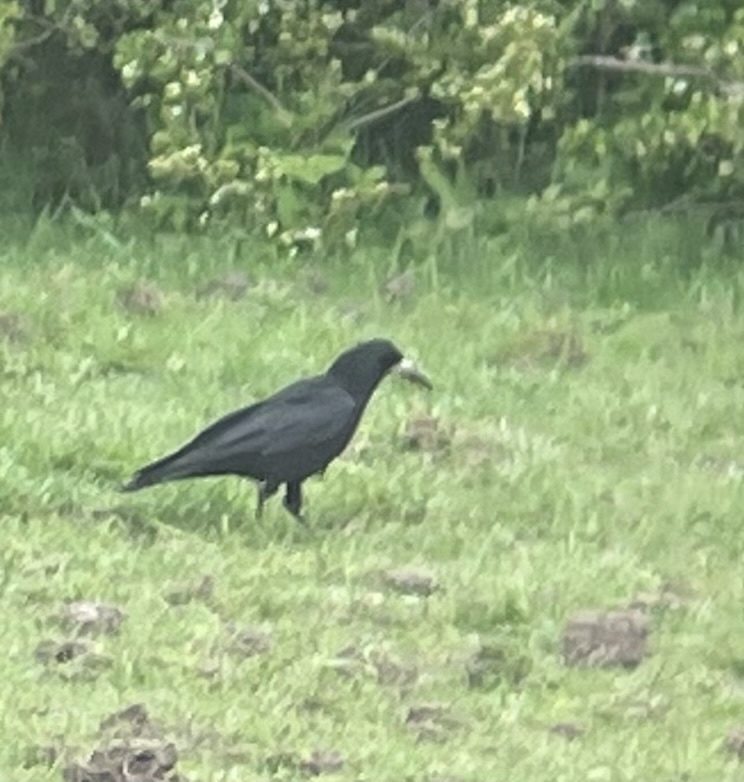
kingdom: Animalia
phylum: Chordata
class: Aves
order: Passeriformes
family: Corvidae
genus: Corvus
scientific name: Corvus frugilegus
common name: Rook
